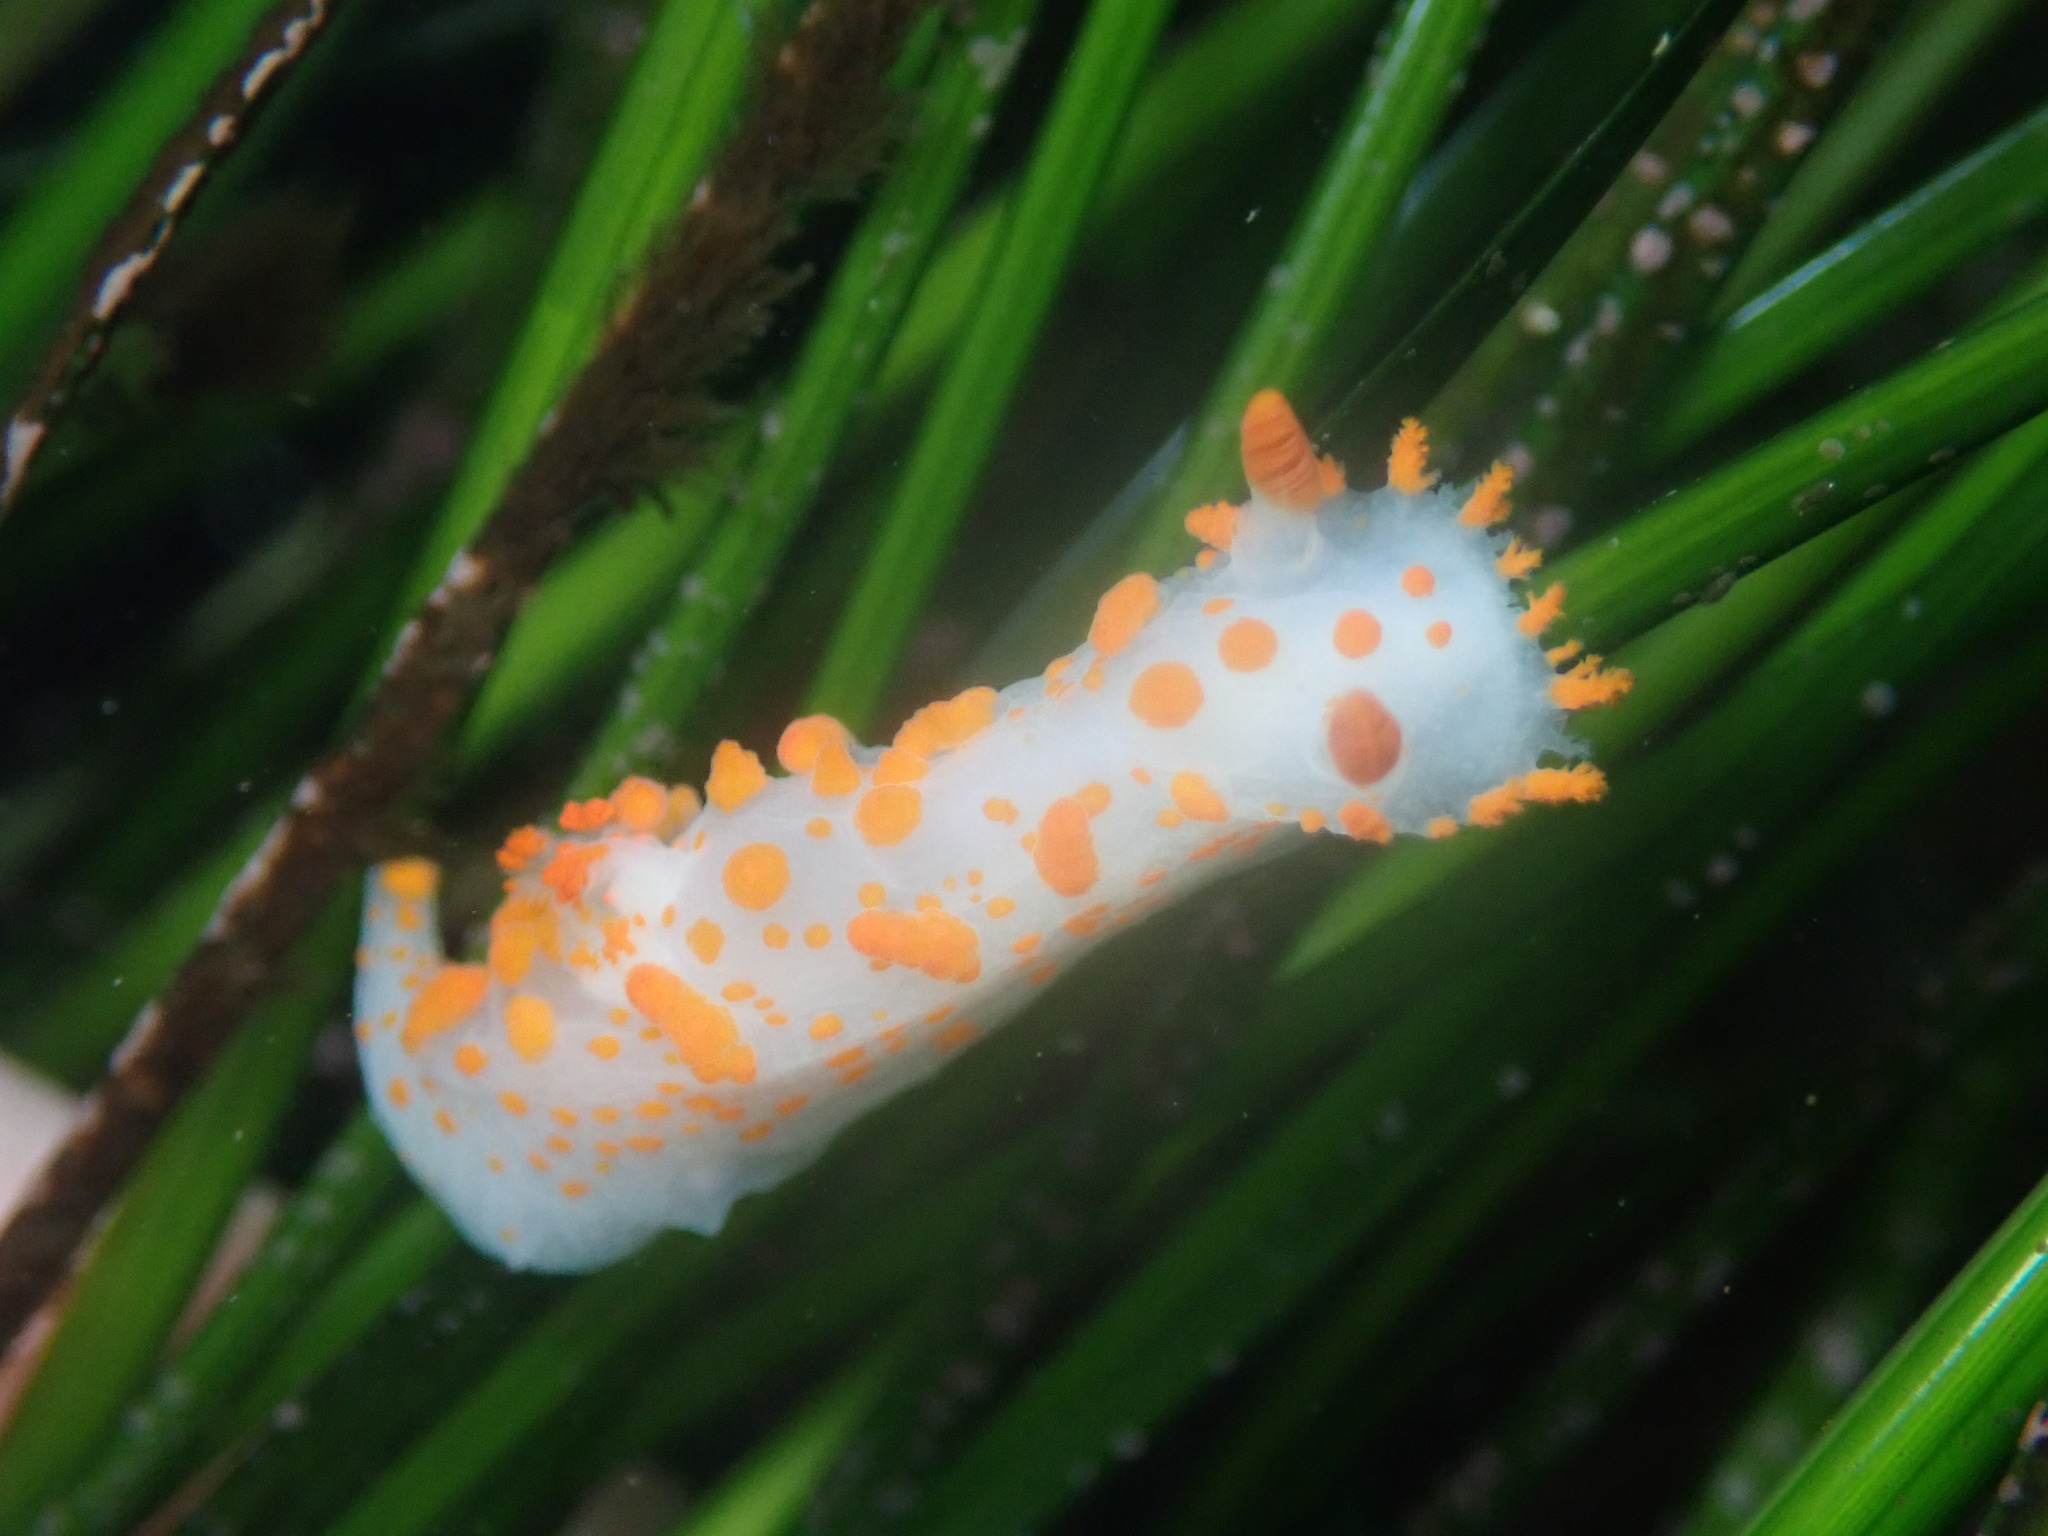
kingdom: Animalia
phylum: Mollusca
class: Gastropoda
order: Nudibranchia
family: Polyceridae
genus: Triopha
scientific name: Triopha catalinae
